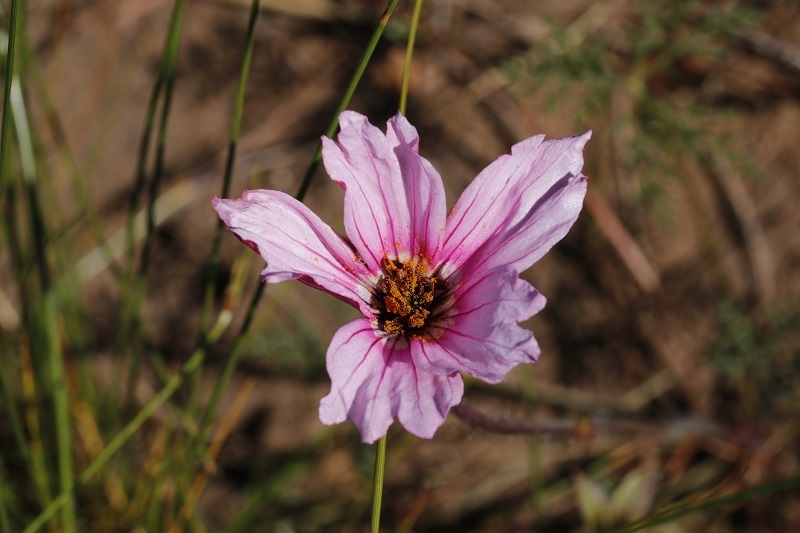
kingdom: Plantae
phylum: Tracheophyta
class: Magnoliopsida
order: Geraniales
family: Geraniaceae
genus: Monsonia
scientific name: Monsonia speciosa
